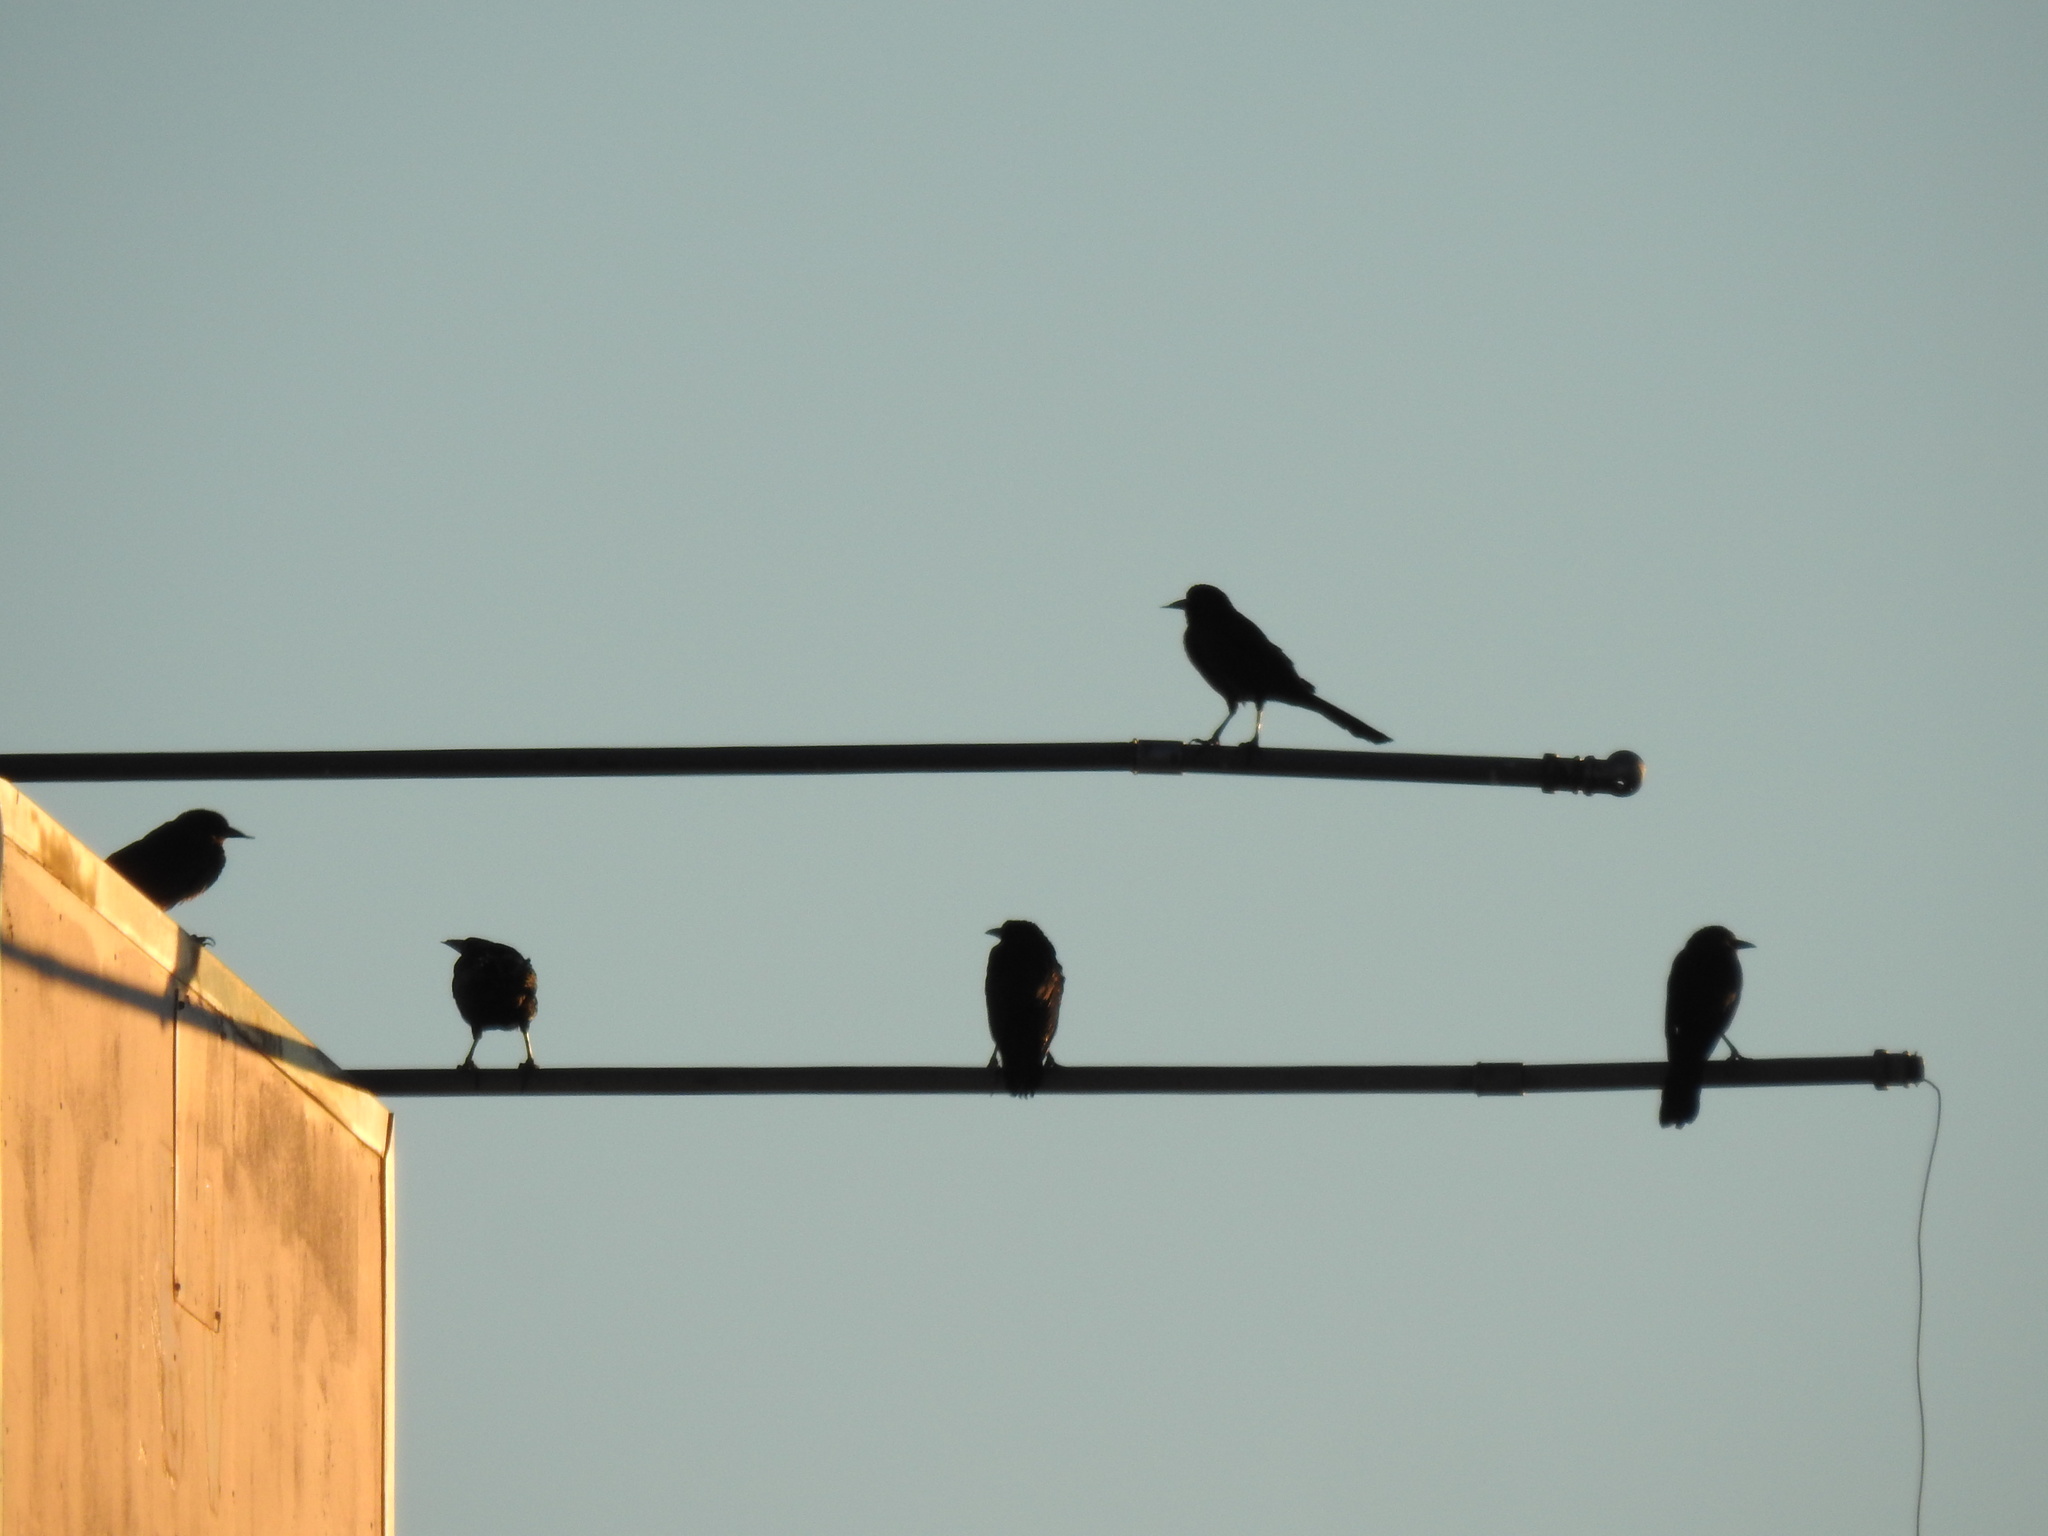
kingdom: Animalia
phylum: Chordata
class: Aves
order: Passeriformes
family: Icteridae
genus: Quiscalus
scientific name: Quiscalus mexicanus
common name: Great-tailed grackle
